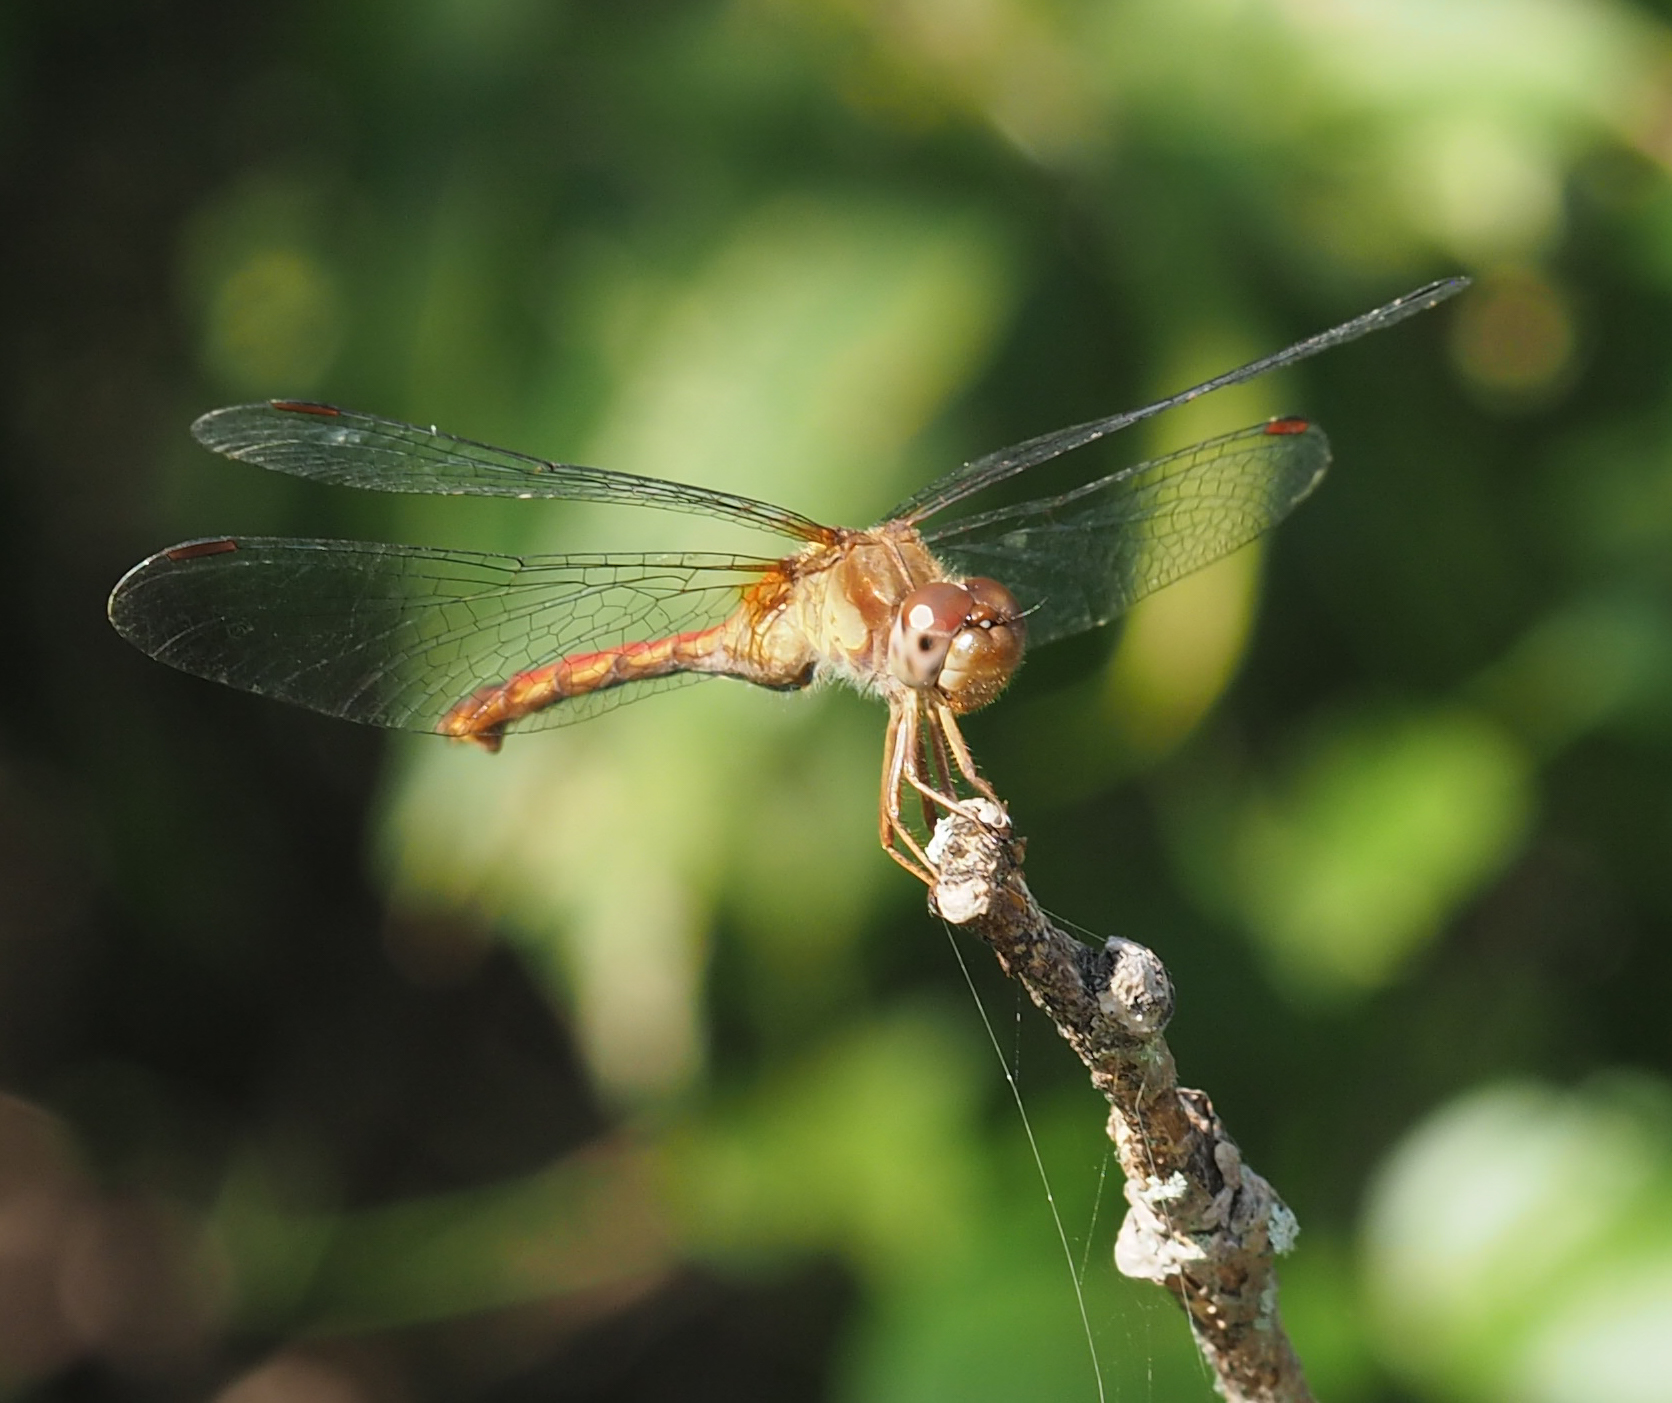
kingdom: Animalia
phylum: Arthropoda
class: Insecta
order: Odonata
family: Libellulidae
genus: Sympetrum
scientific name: Sympetrum vicinum
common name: Autumn meadowhawk
